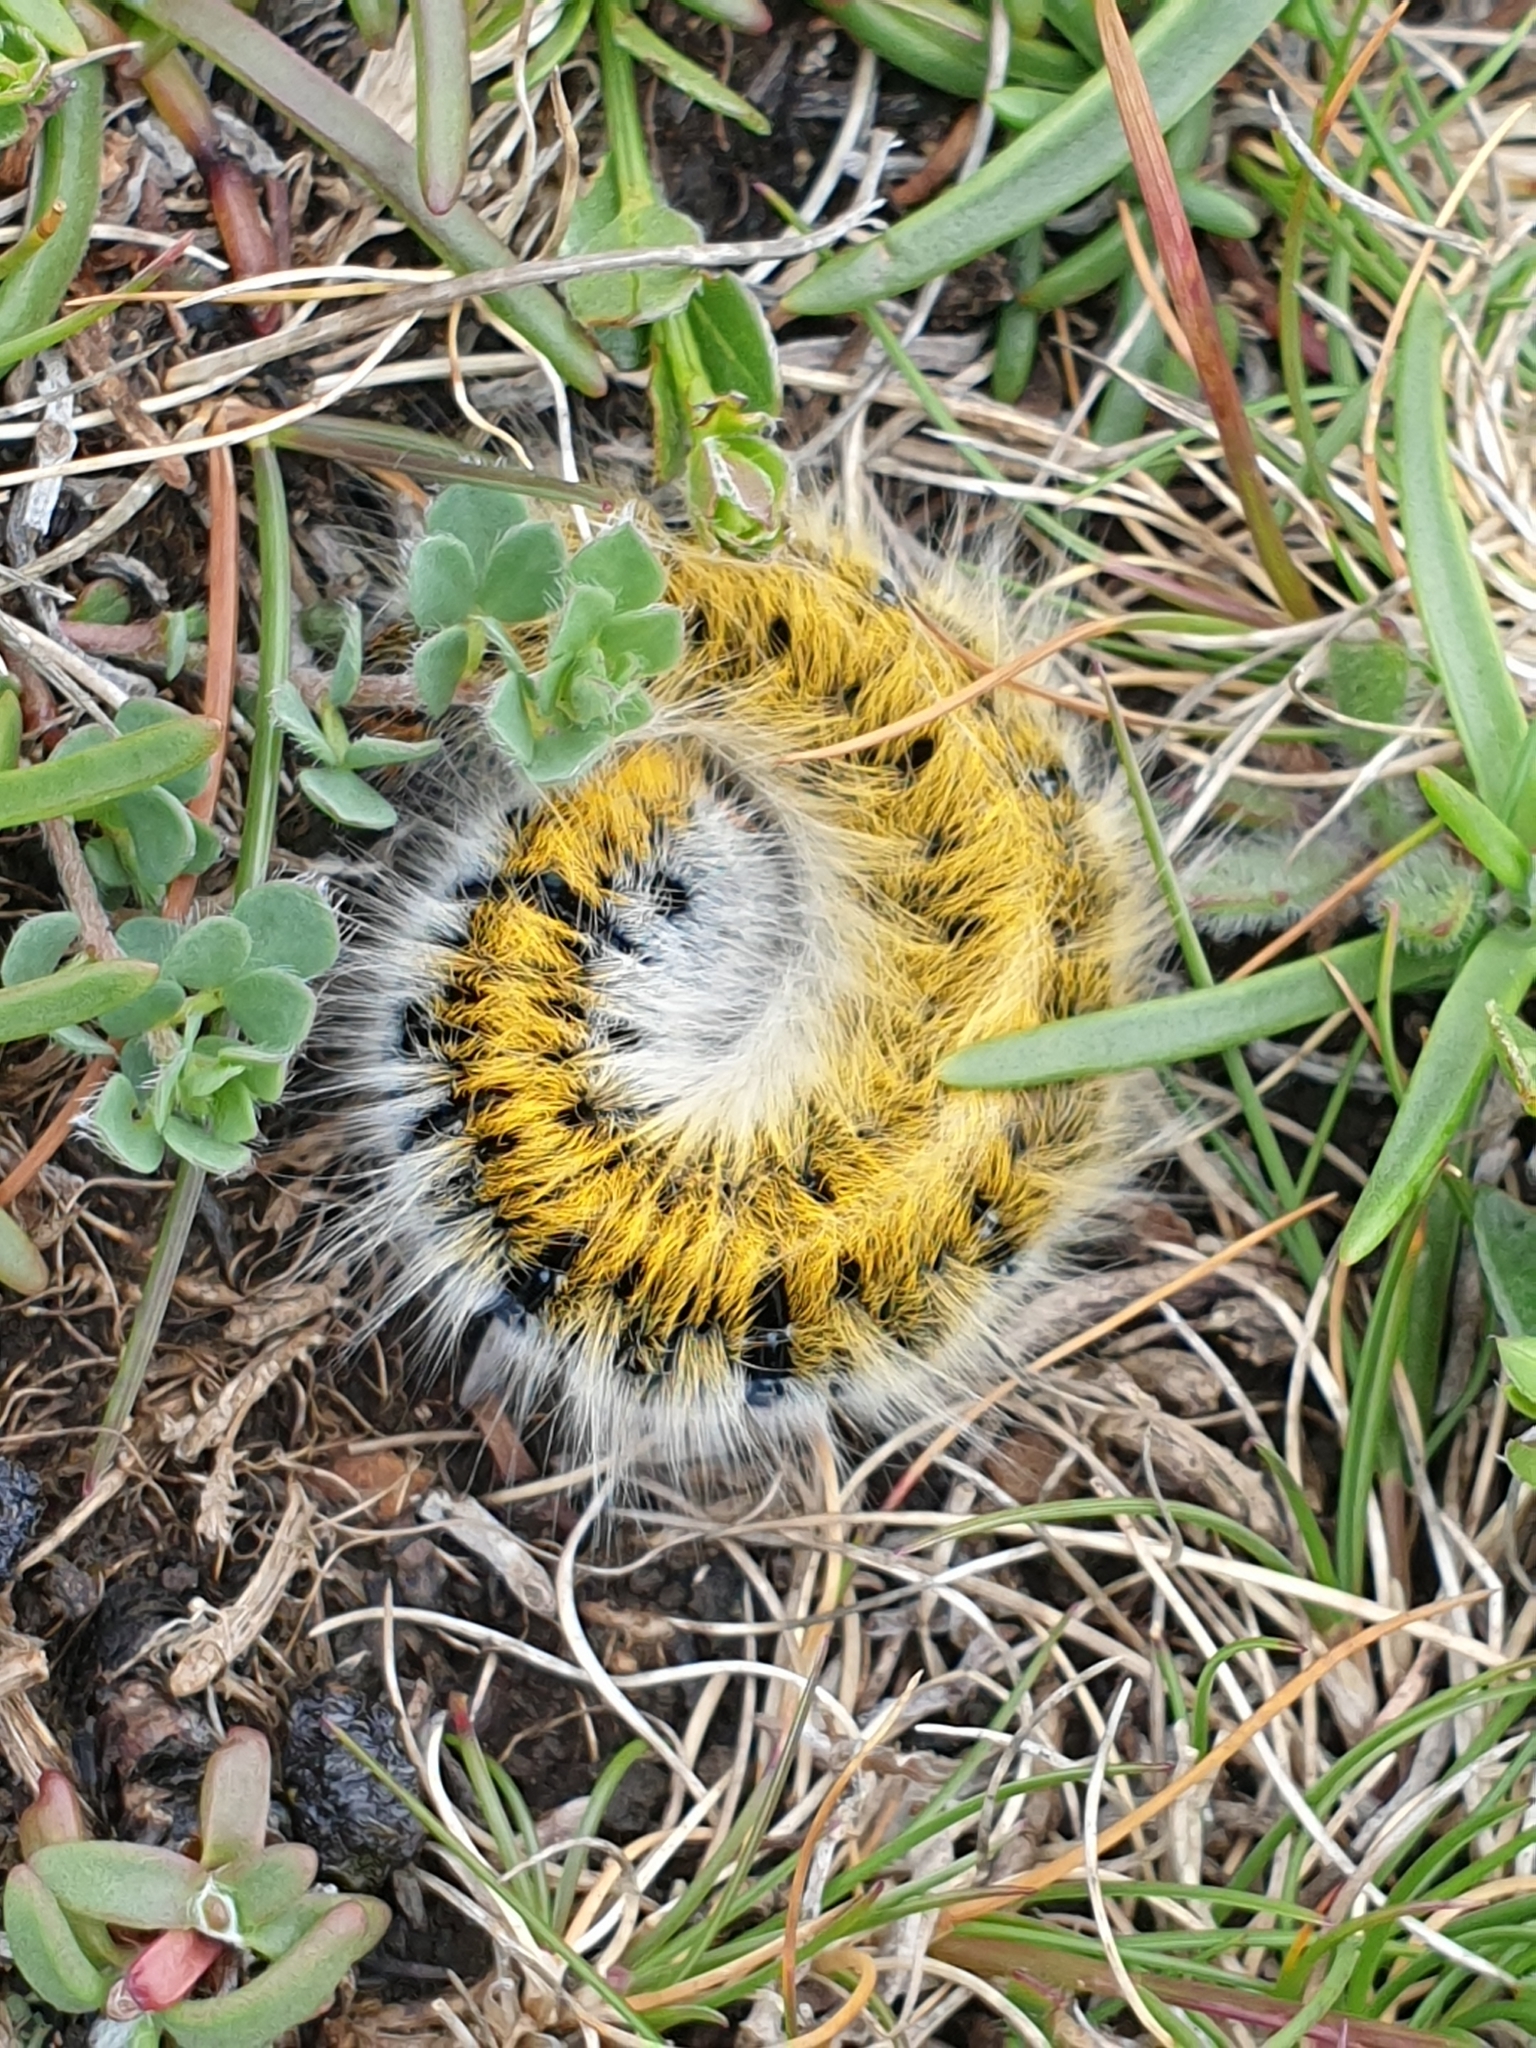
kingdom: Animalia
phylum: Arthropoda
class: Insecta
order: Lepidoptera
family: Lasiocampidae
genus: Lasiocampa
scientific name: Lasiocampa trifolii
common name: Grass eggar
